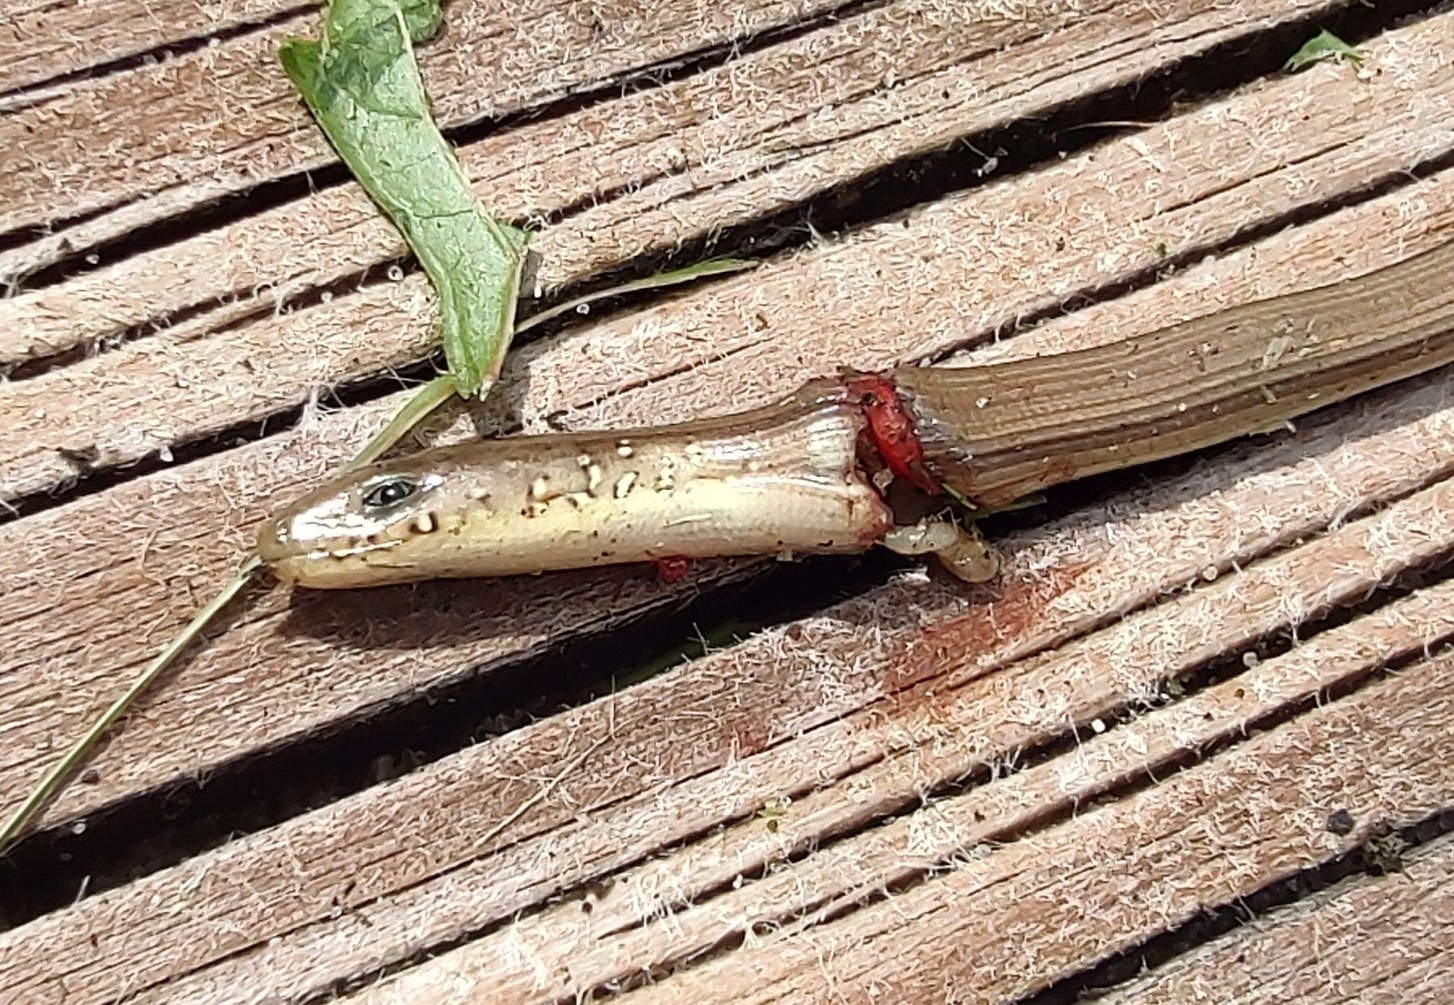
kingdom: Animalia
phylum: Chordata
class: Squamata
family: Anguidae
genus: Ophisaurus
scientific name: Ophisaurus ventralis
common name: Eastern glass lizard
